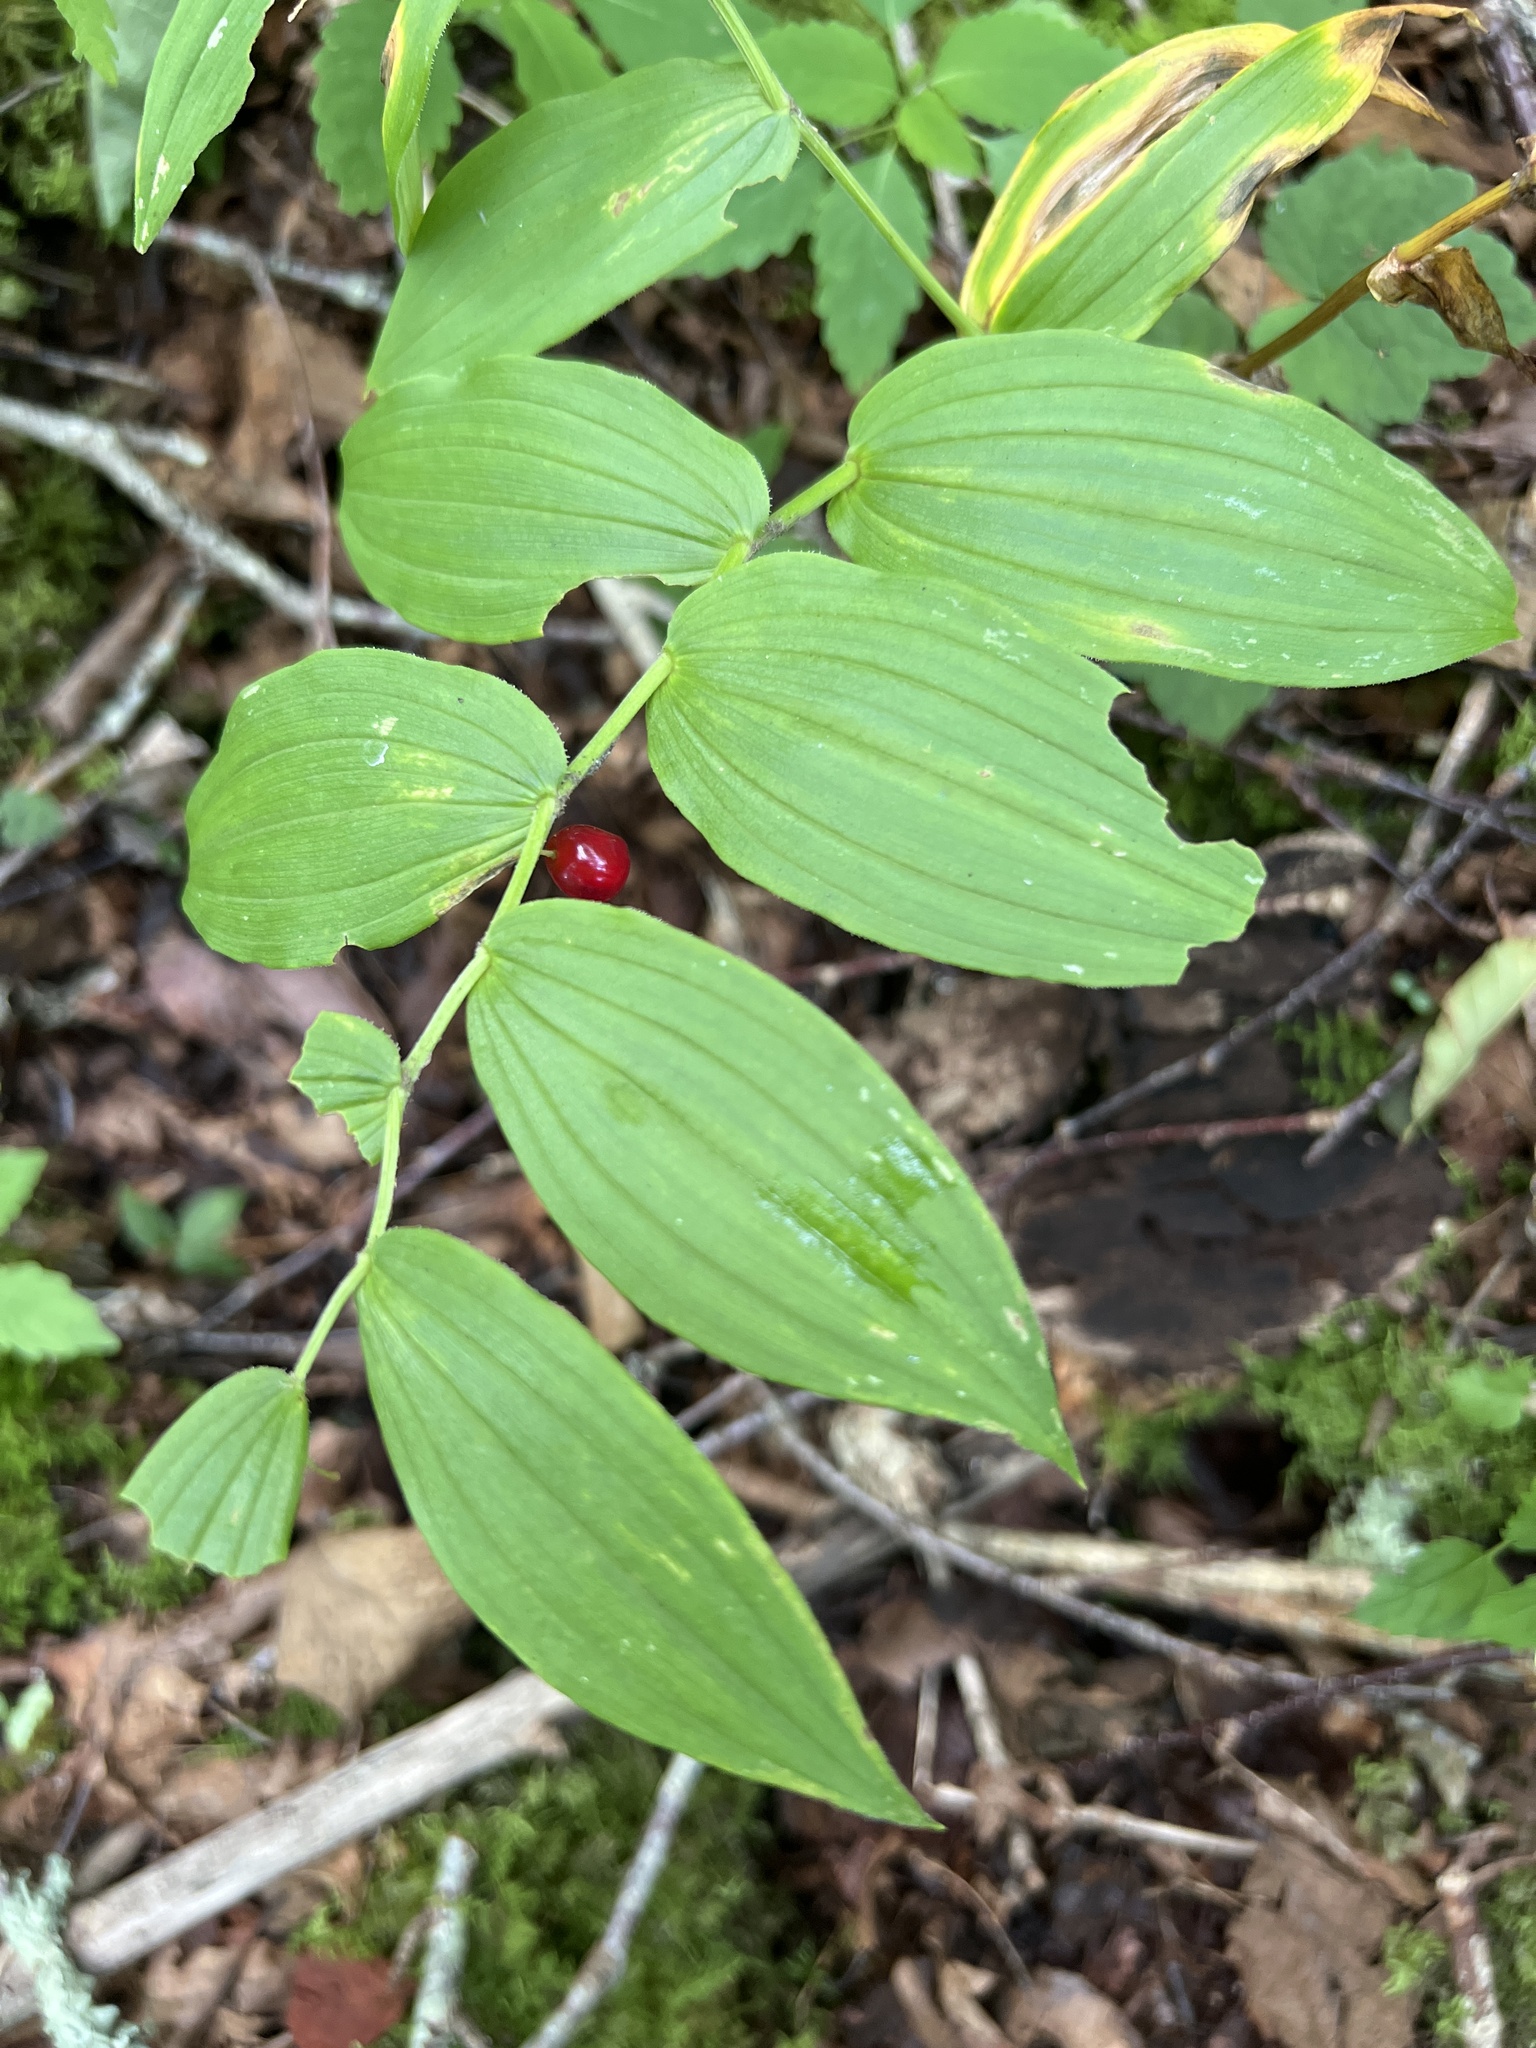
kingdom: Plantae
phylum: Tracheophyta
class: Liliopsida
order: Liliales
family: Liliaceae
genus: Streptopus
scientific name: Streptopus lanceolatus
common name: Rose mandarin
